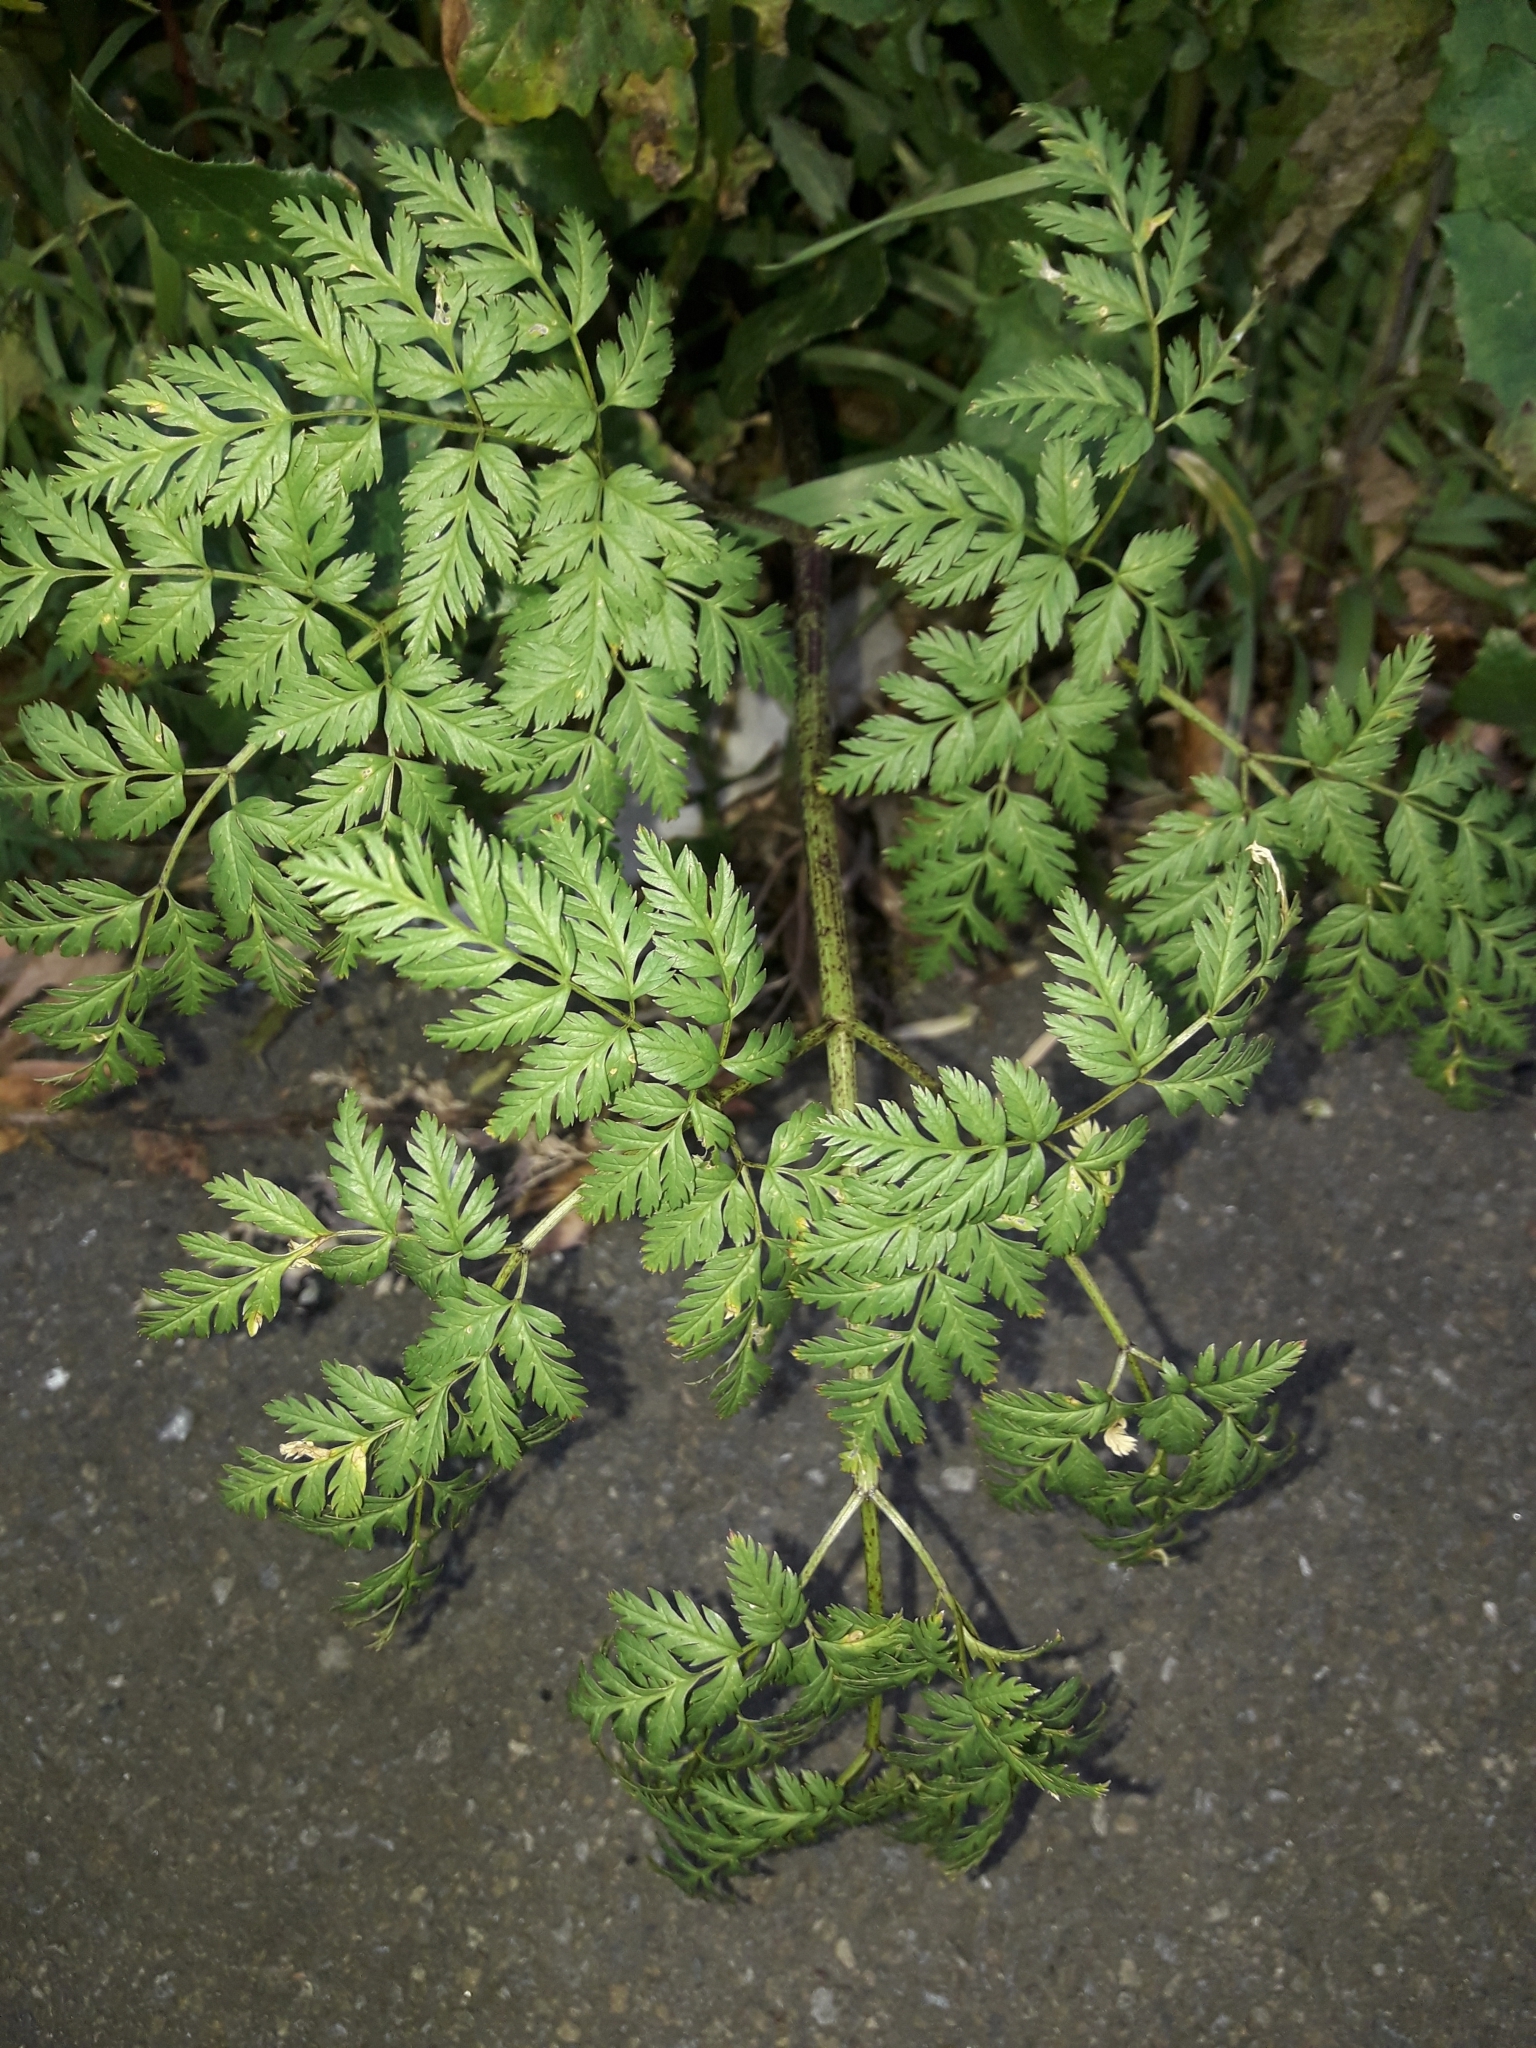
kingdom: Plantae
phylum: Tracheophyta
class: Magnoliopsida
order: Apiales
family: Apiaceae
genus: Conium
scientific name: Conium maculatum
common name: Hemlock
